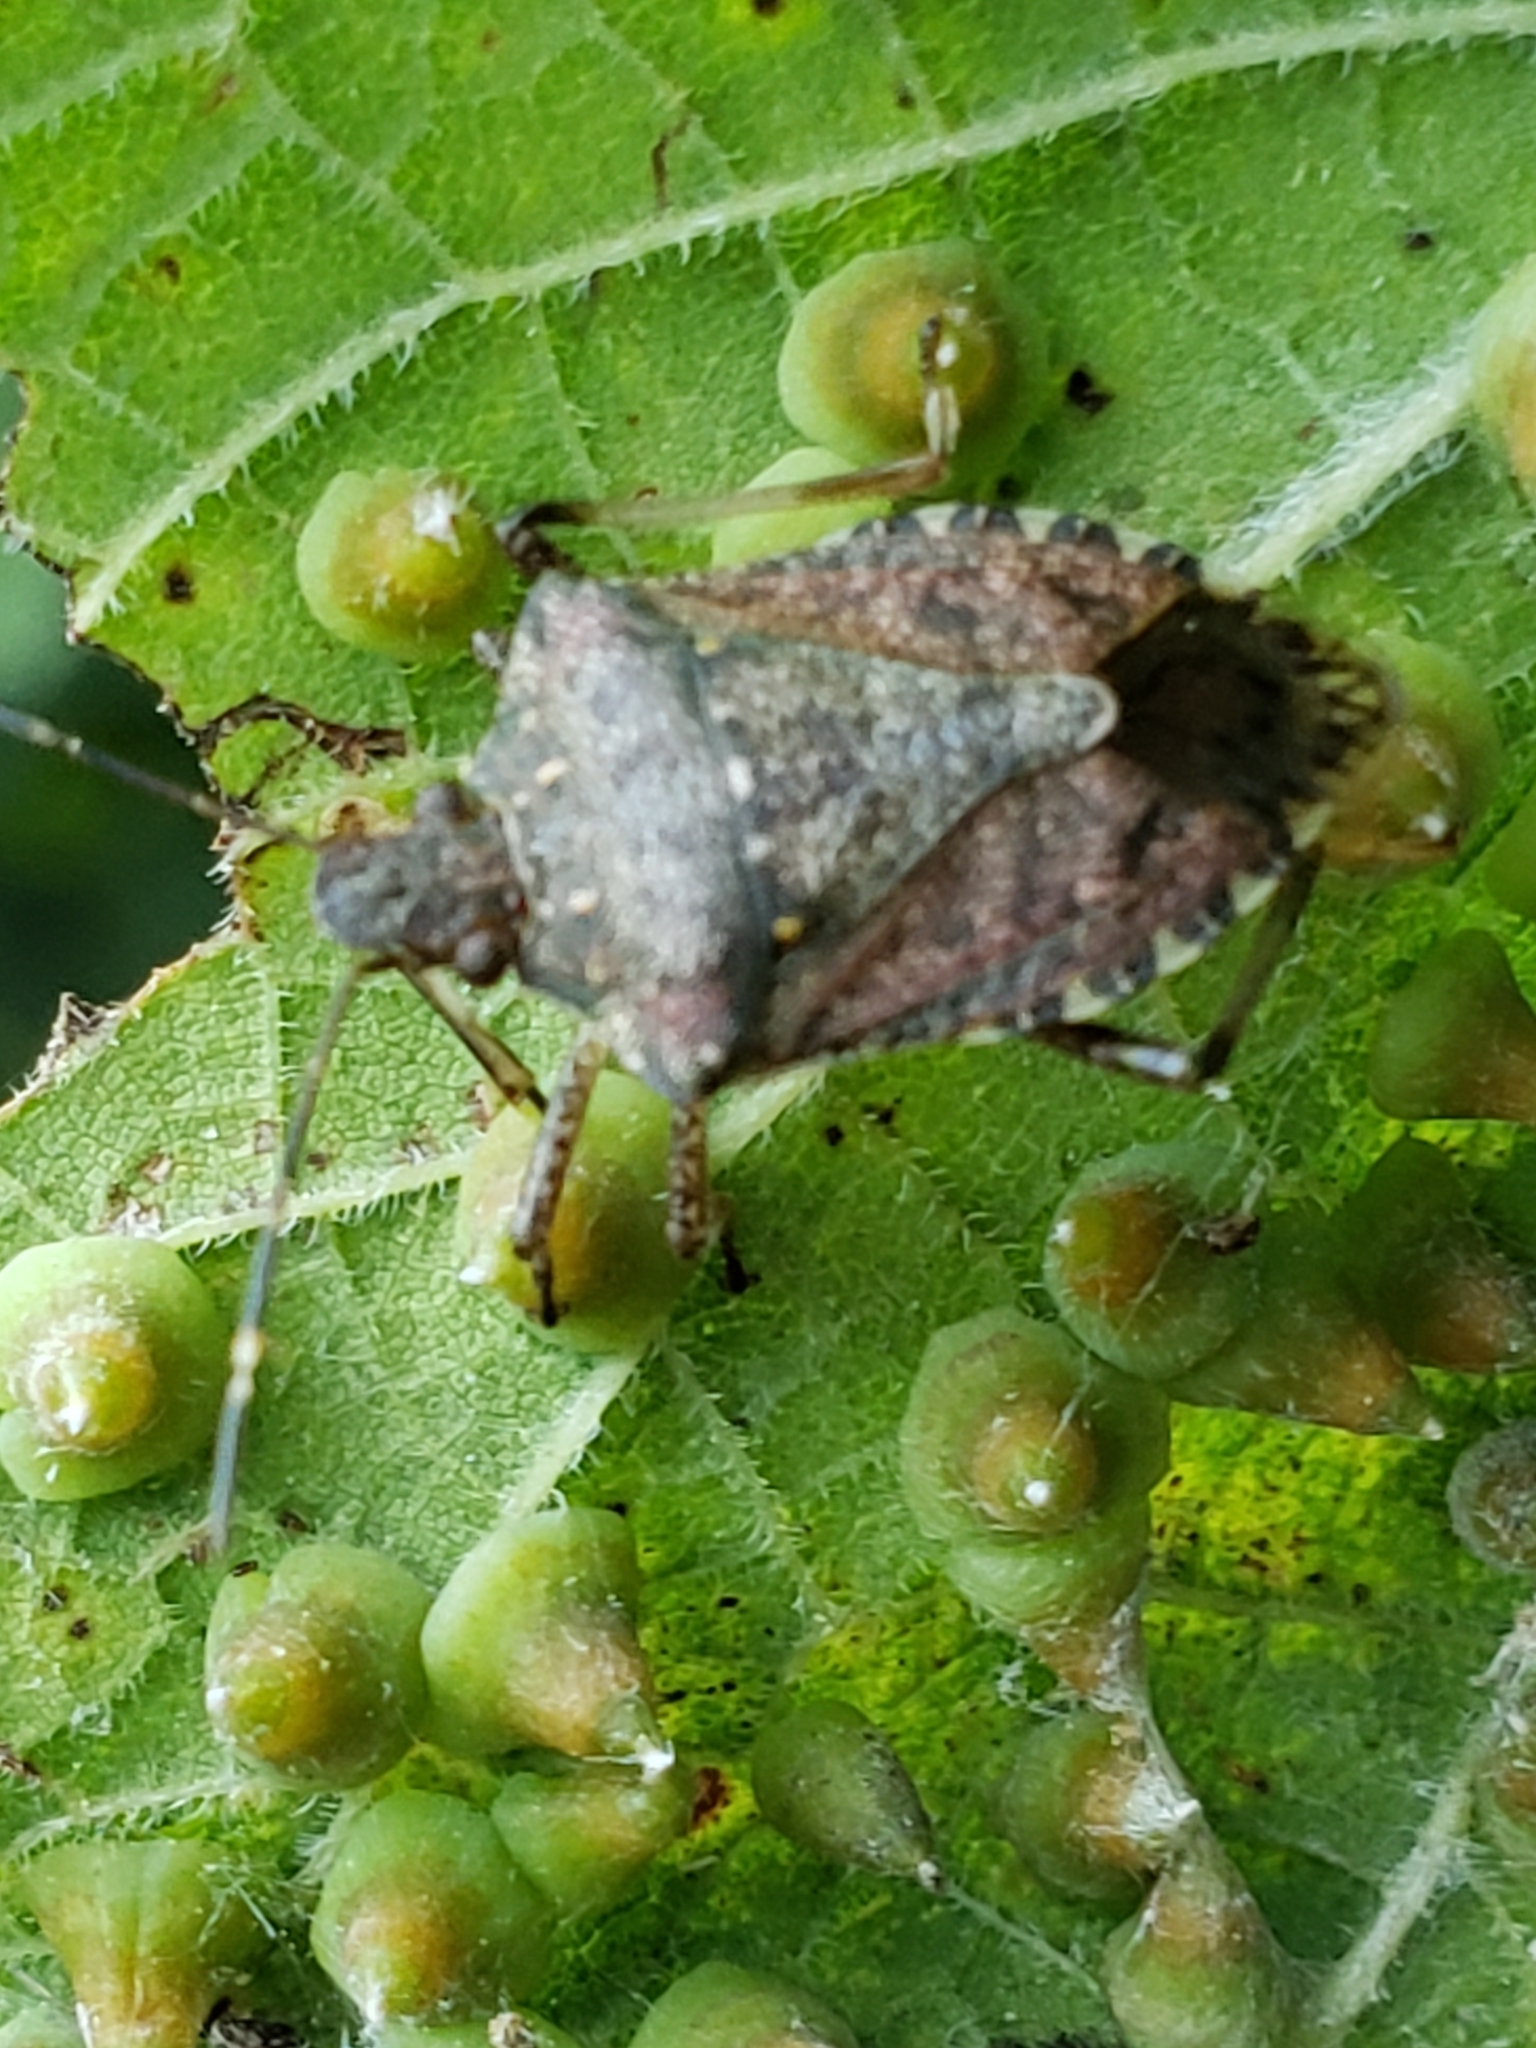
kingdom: Animalia
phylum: Arthropoda
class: Insecta
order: Hemiptera
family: Pentatomidae
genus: Halyomorpha
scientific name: Halyomorpha halys
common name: Brown marmorated stink bug
